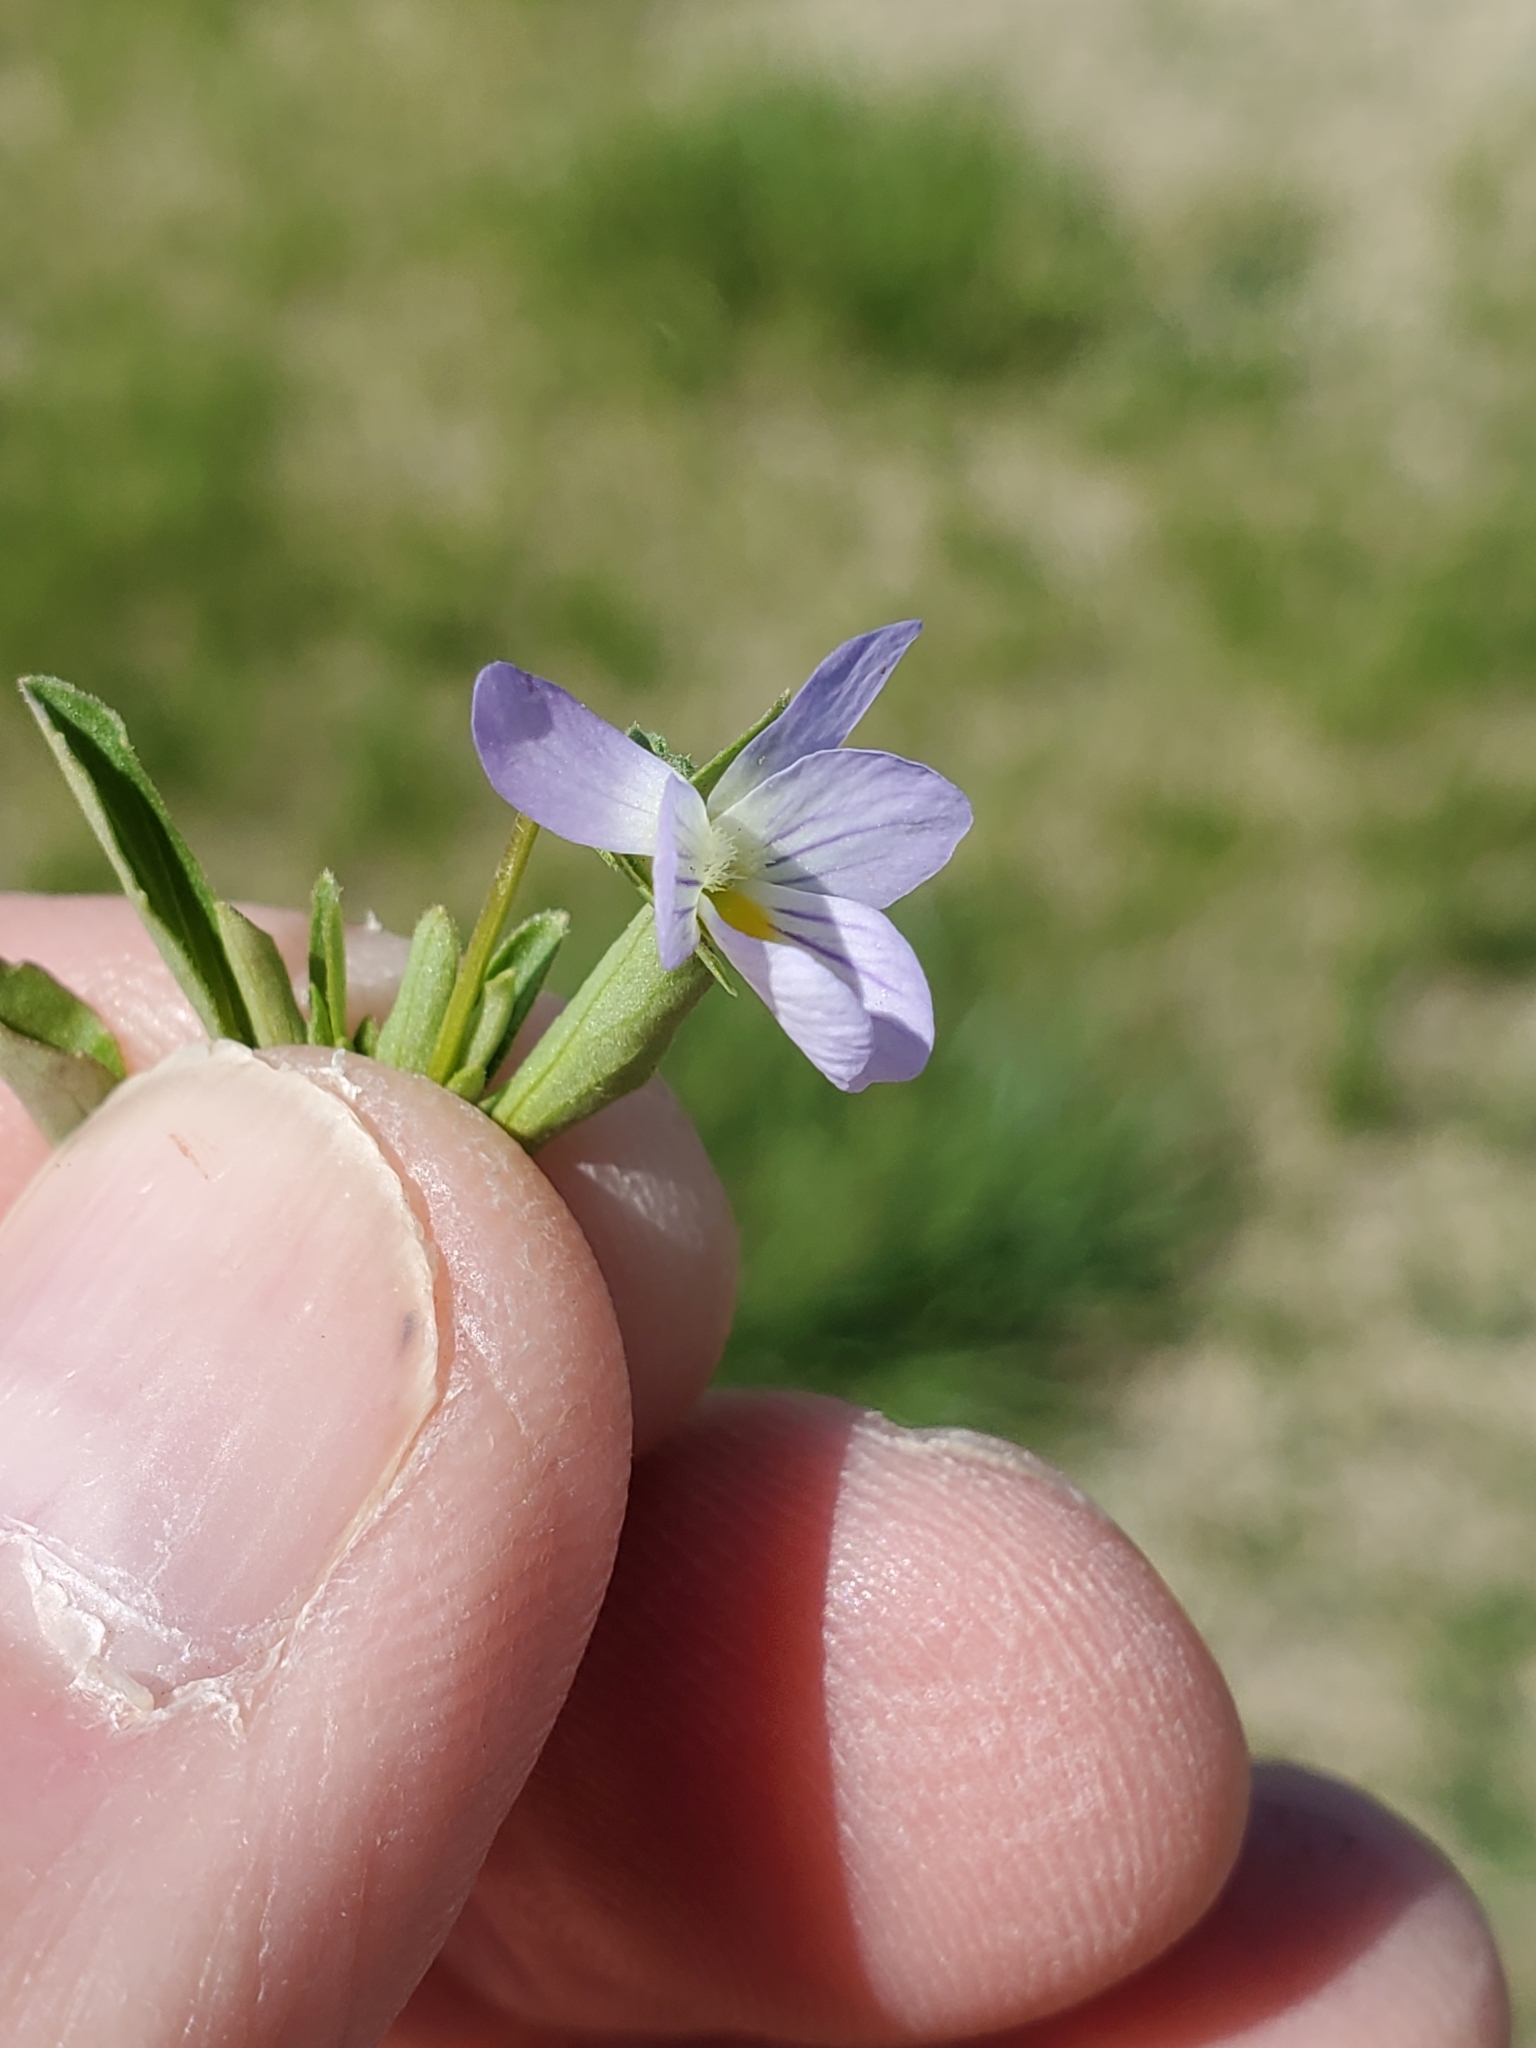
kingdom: Plantae
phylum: Tracheophyta
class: Magnoliopsida
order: Malpighiales
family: Violaceae
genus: Viola
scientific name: Viola rafinesquei
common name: American field pansy
